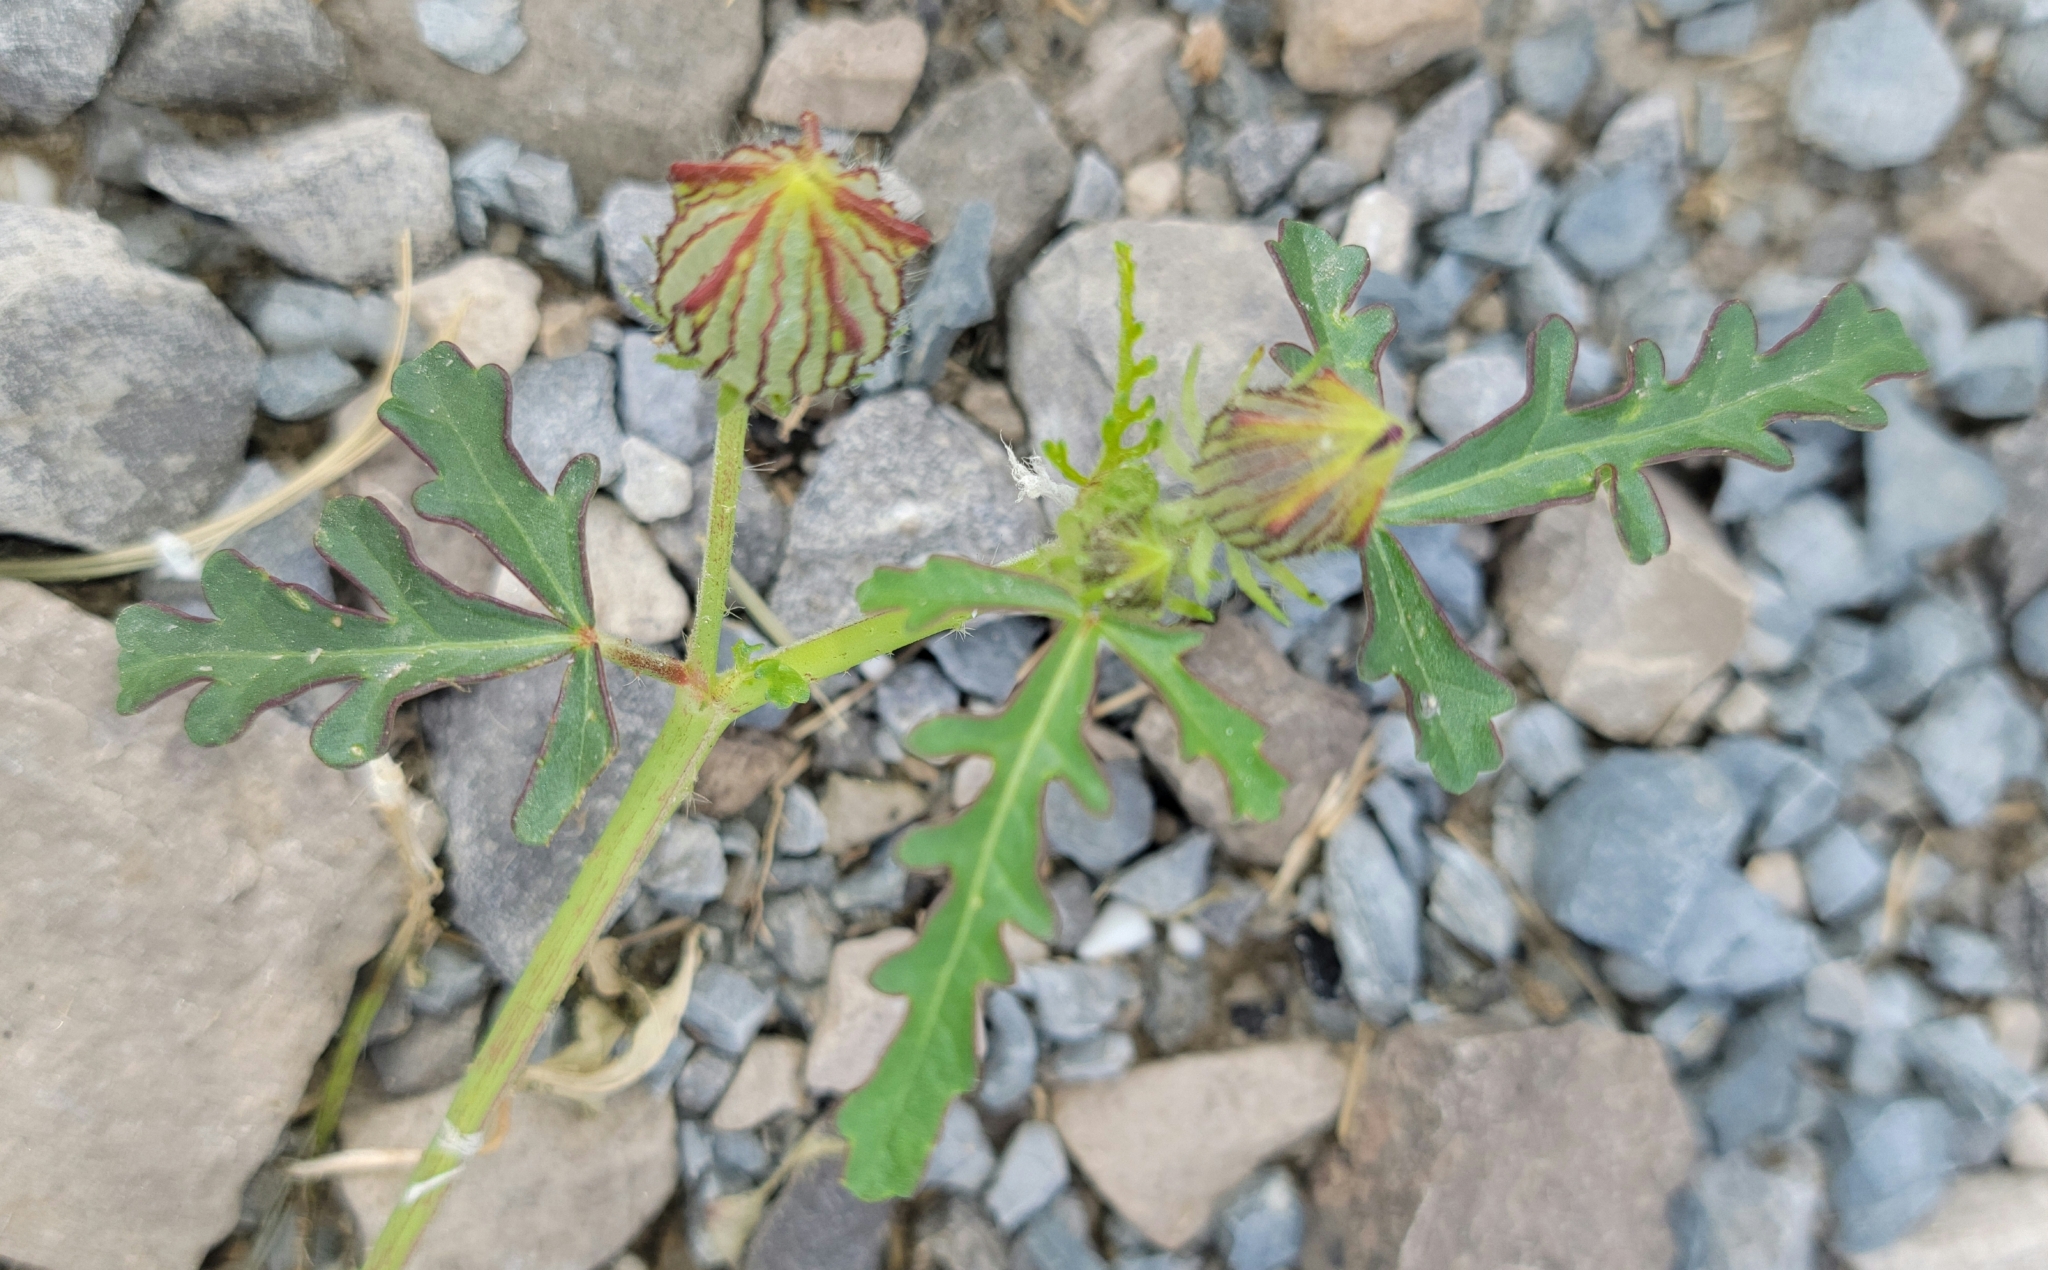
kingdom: Plantae
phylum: Tracheophyta
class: Magnoliopsida
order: Malvales
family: Malvaceae
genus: Hibiscus
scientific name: Hibiscus trionum
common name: Bladder ketmia
